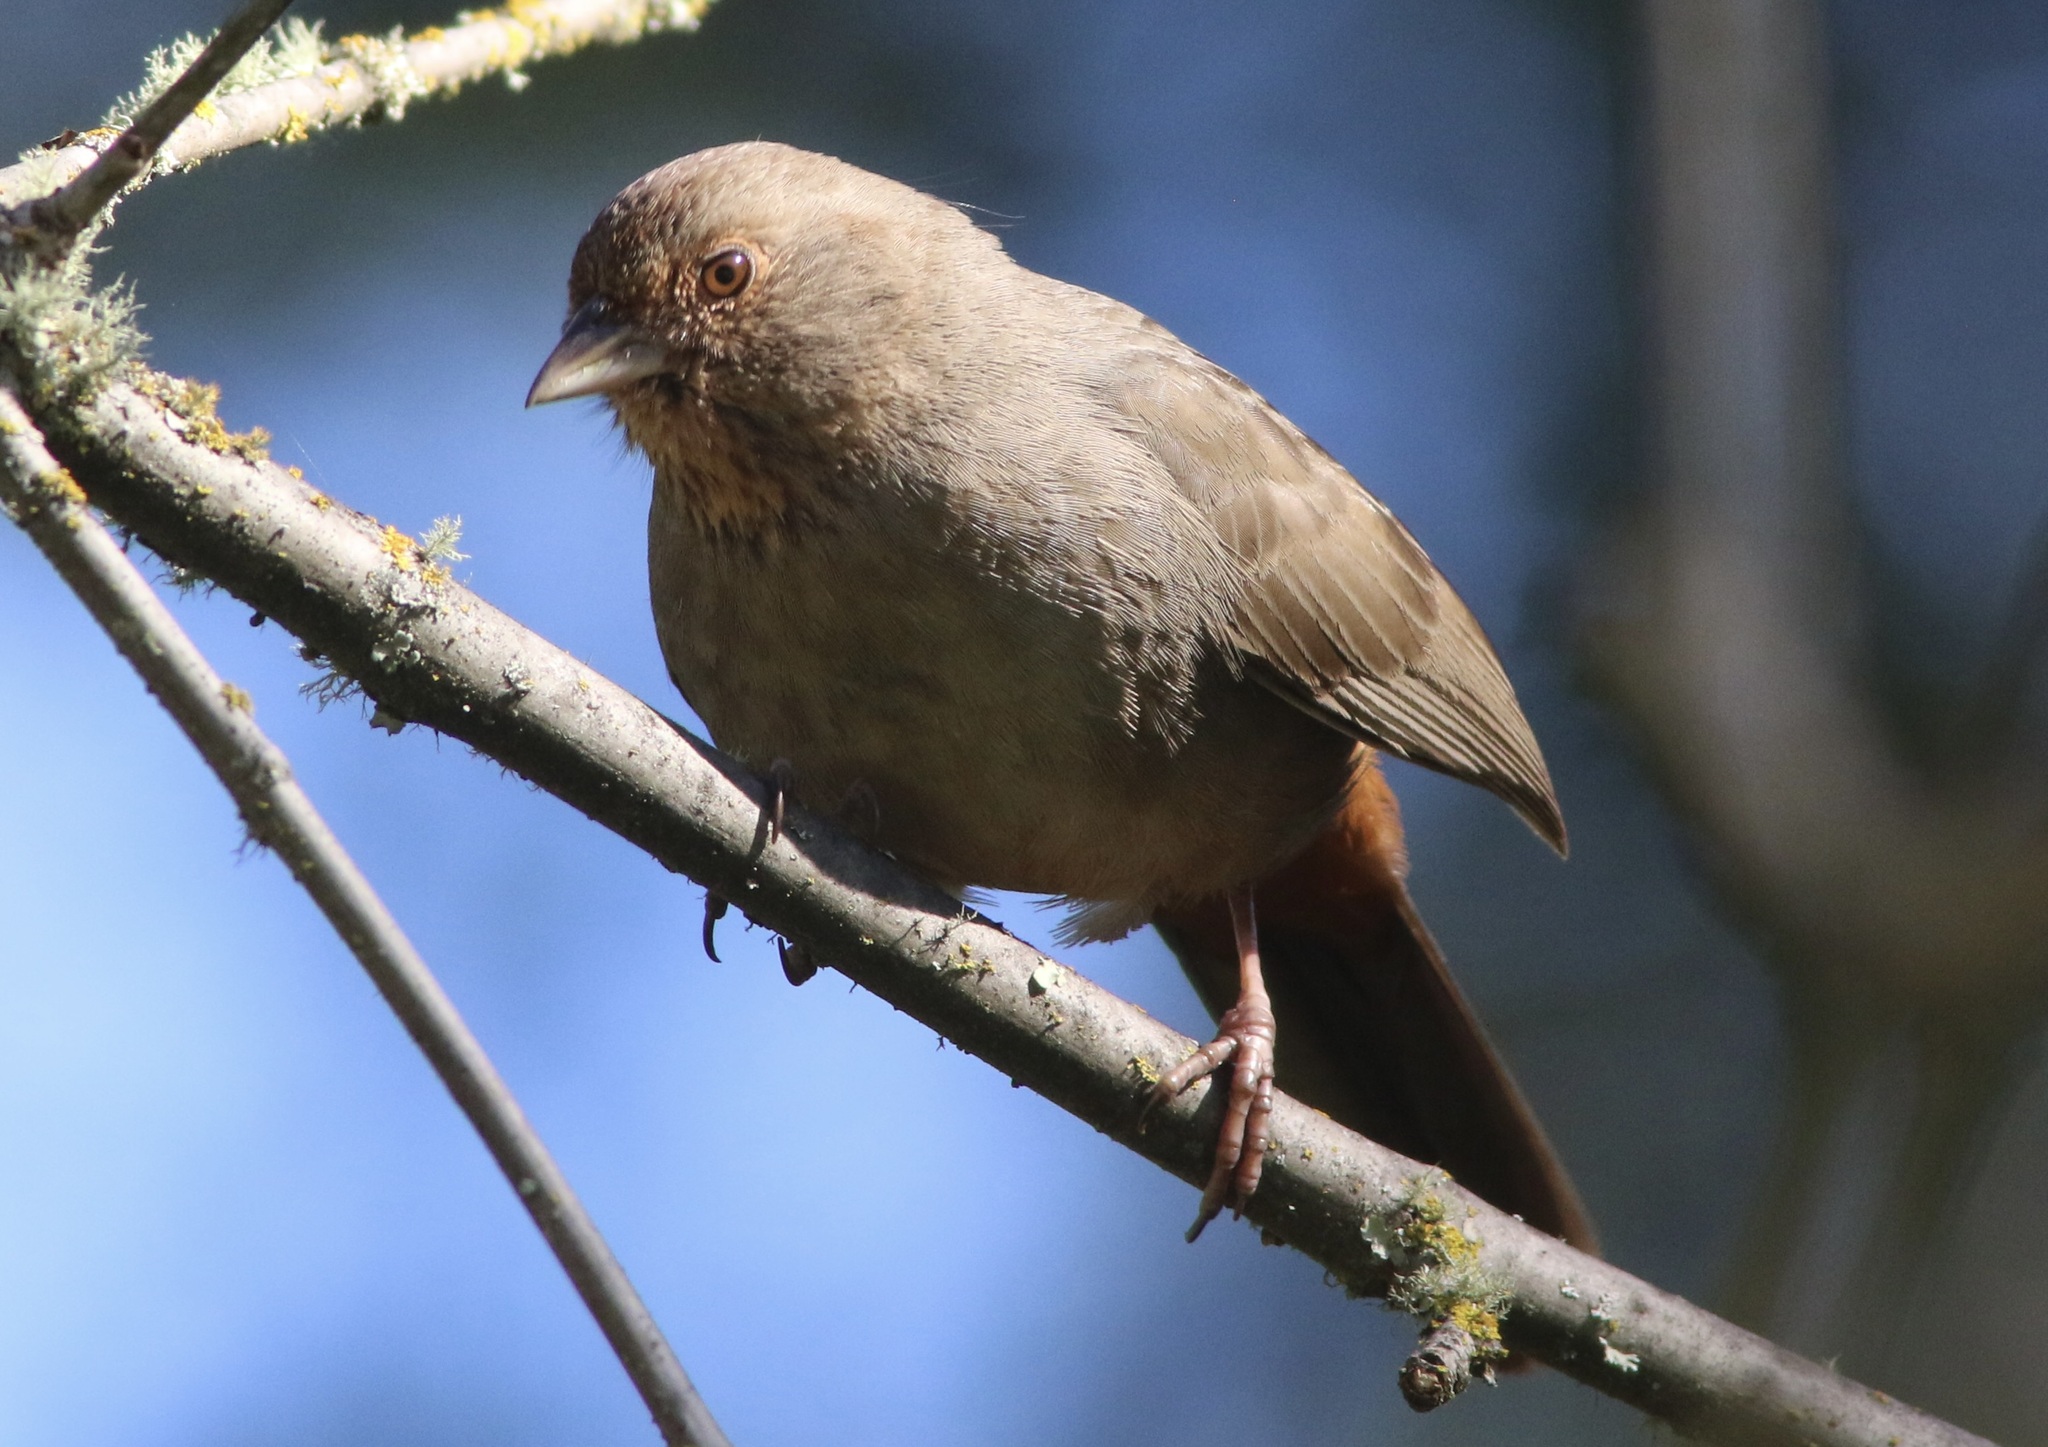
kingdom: Animalia
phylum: Chordata
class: Aves
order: Passeriformes
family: Passerellidae
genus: Melozone
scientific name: Melozone crissalis
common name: California towhee
